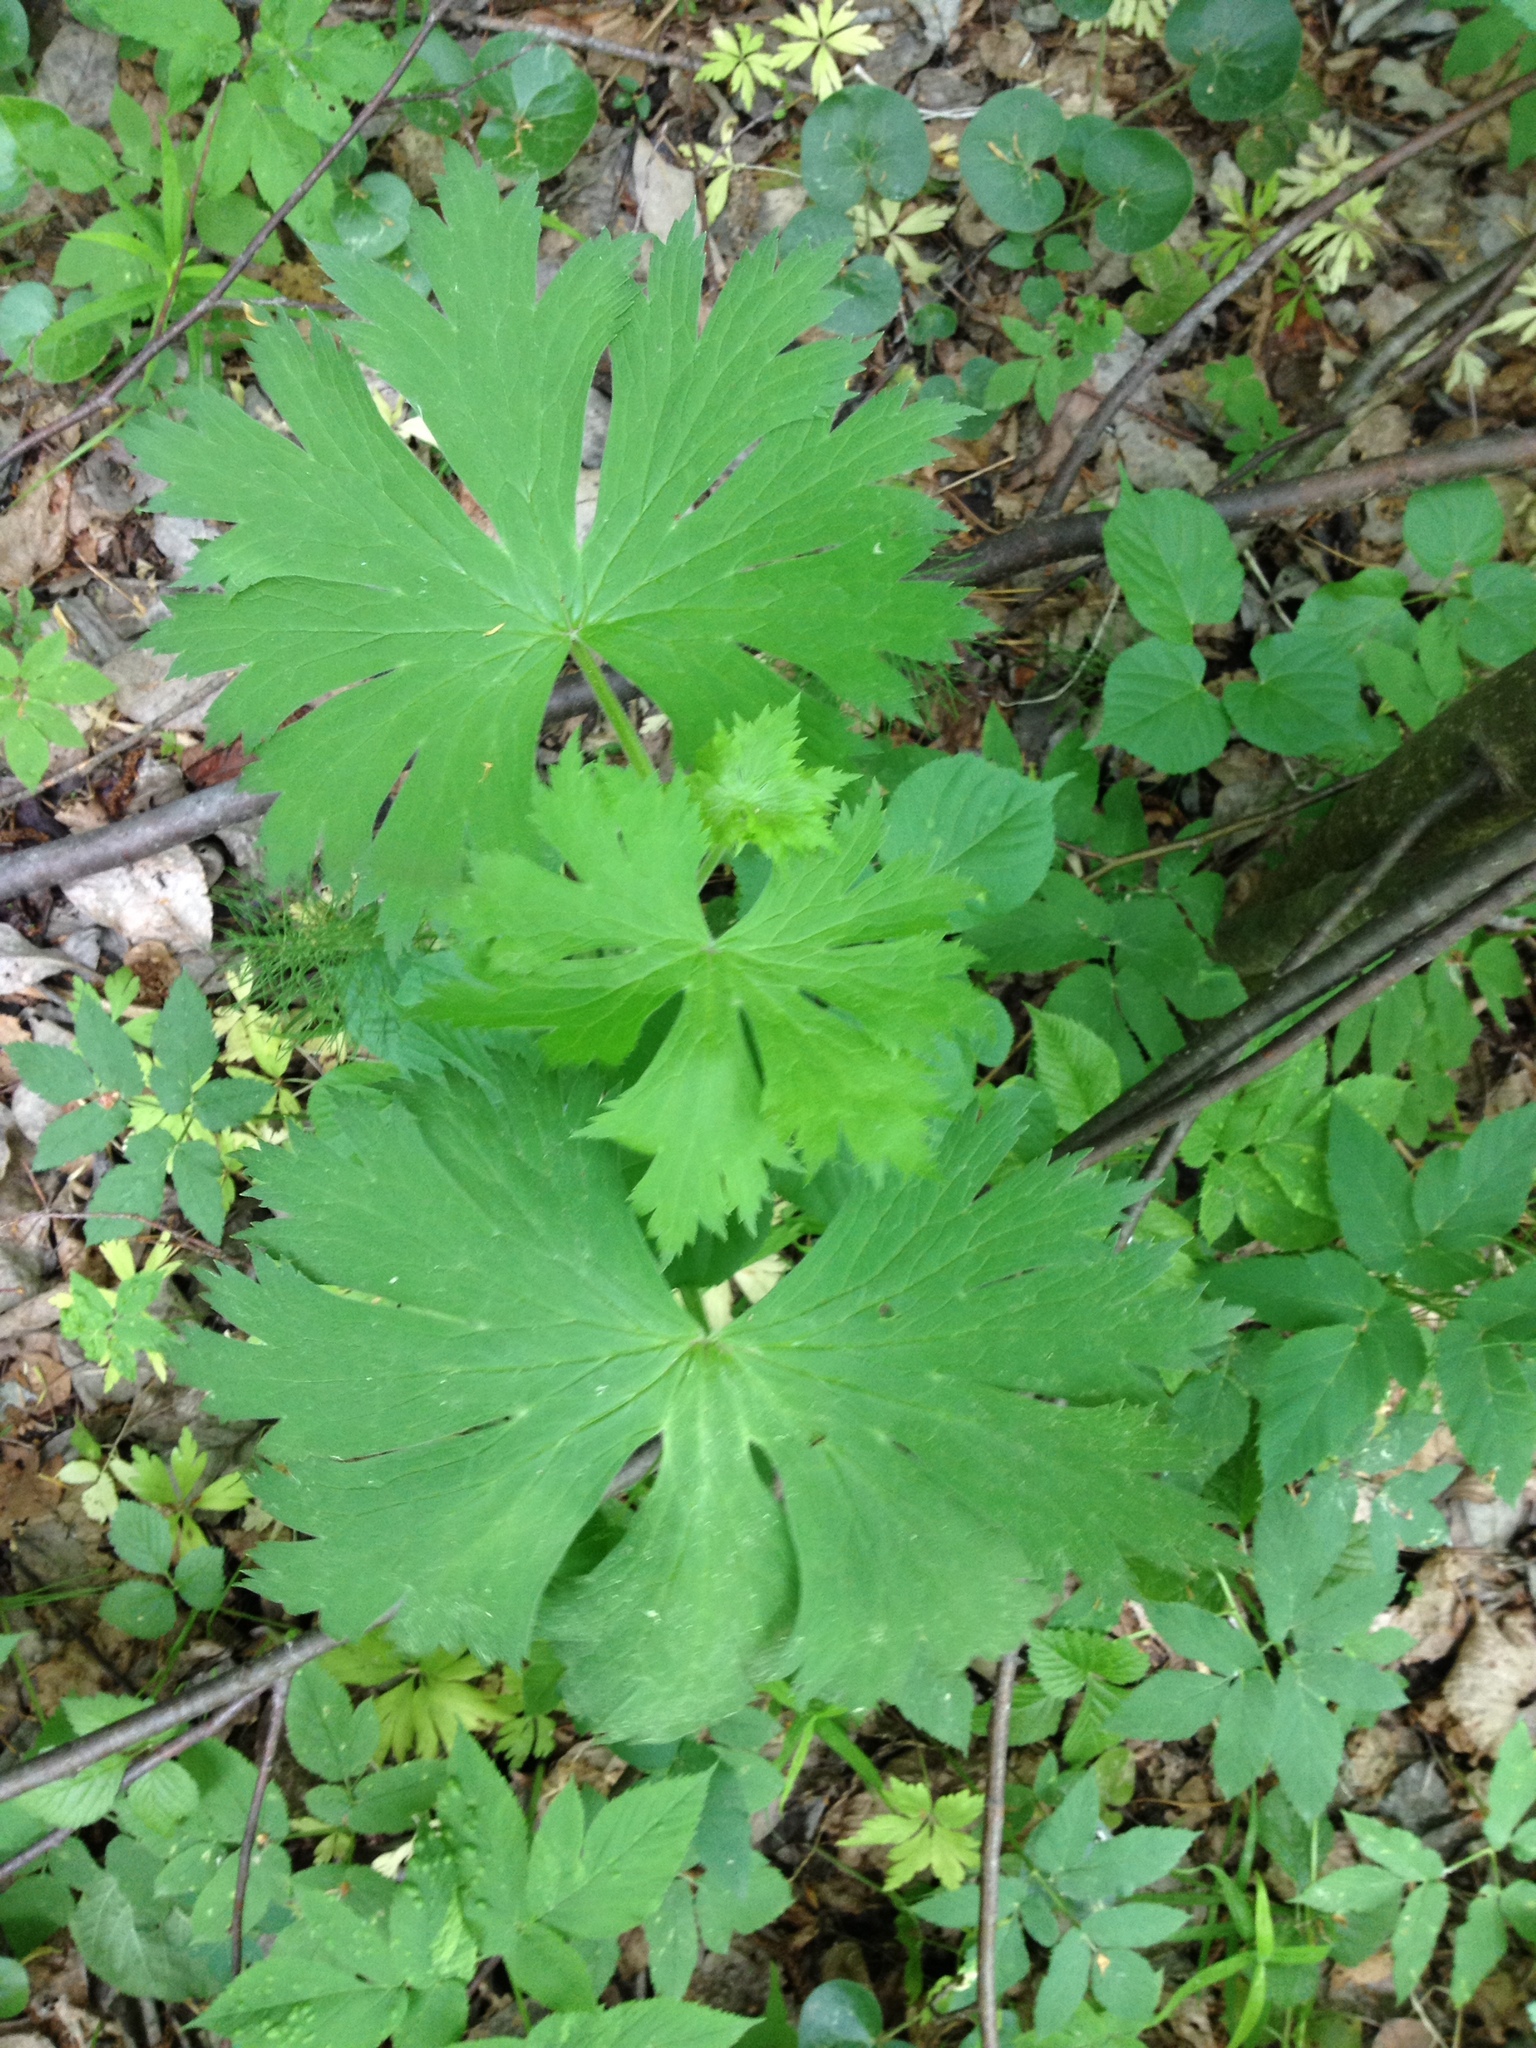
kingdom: Plantae
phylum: Tracheophyta
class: Magnoliopsida
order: Ranunculales
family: Ranunculaceae
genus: Aconitum
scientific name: Aconitum septentrionale
